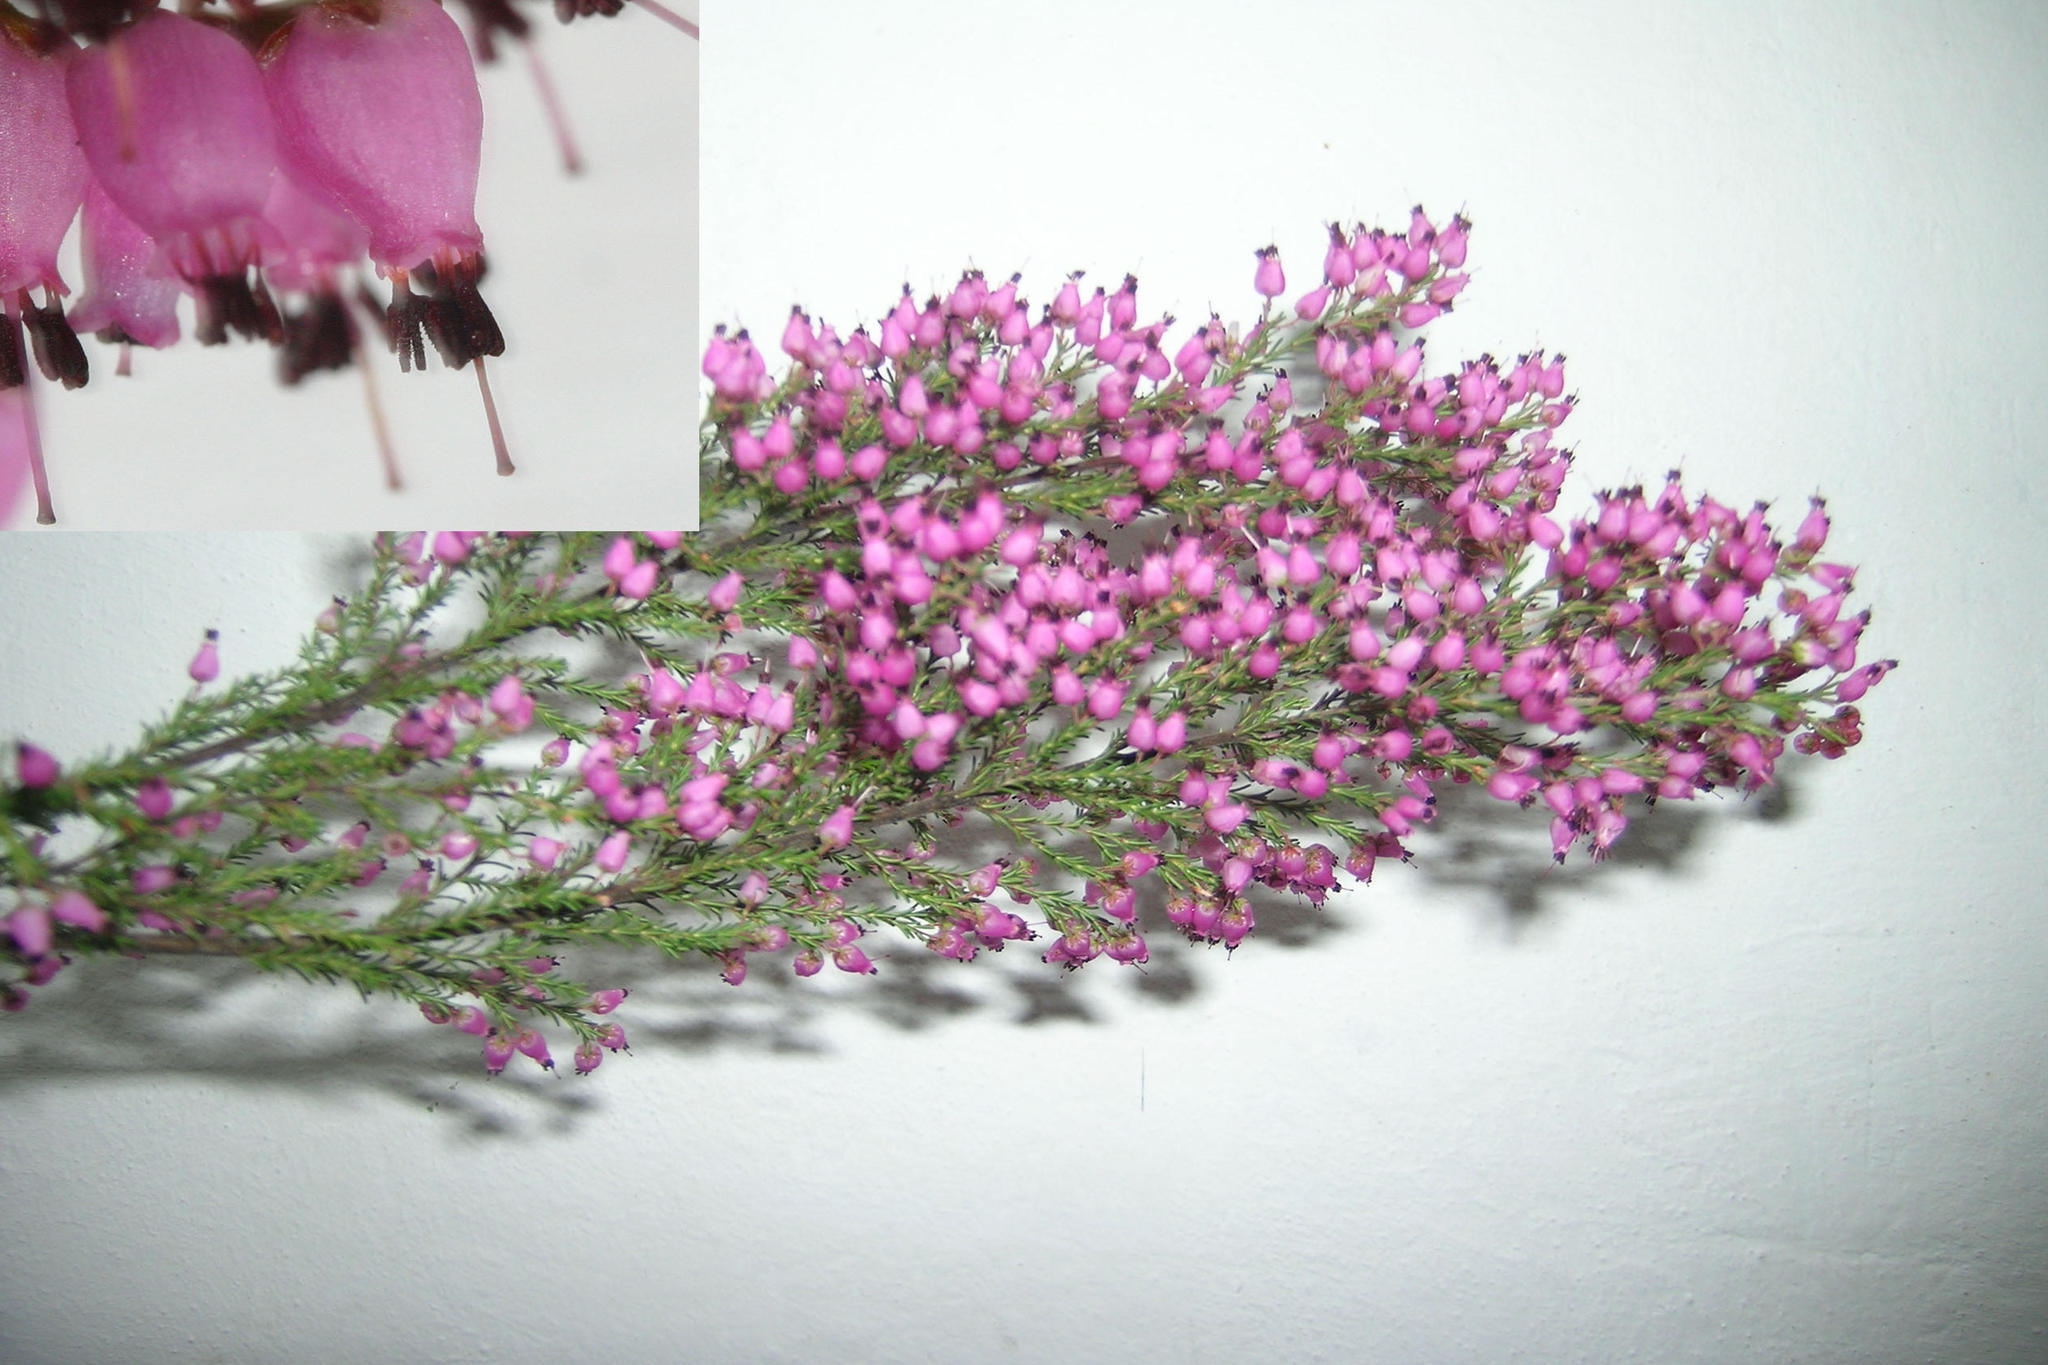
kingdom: Plantae
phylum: Tracheophyta
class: Magnoliopsida
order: Ericales
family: Ericaceae
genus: Erica
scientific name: Erica nutans
